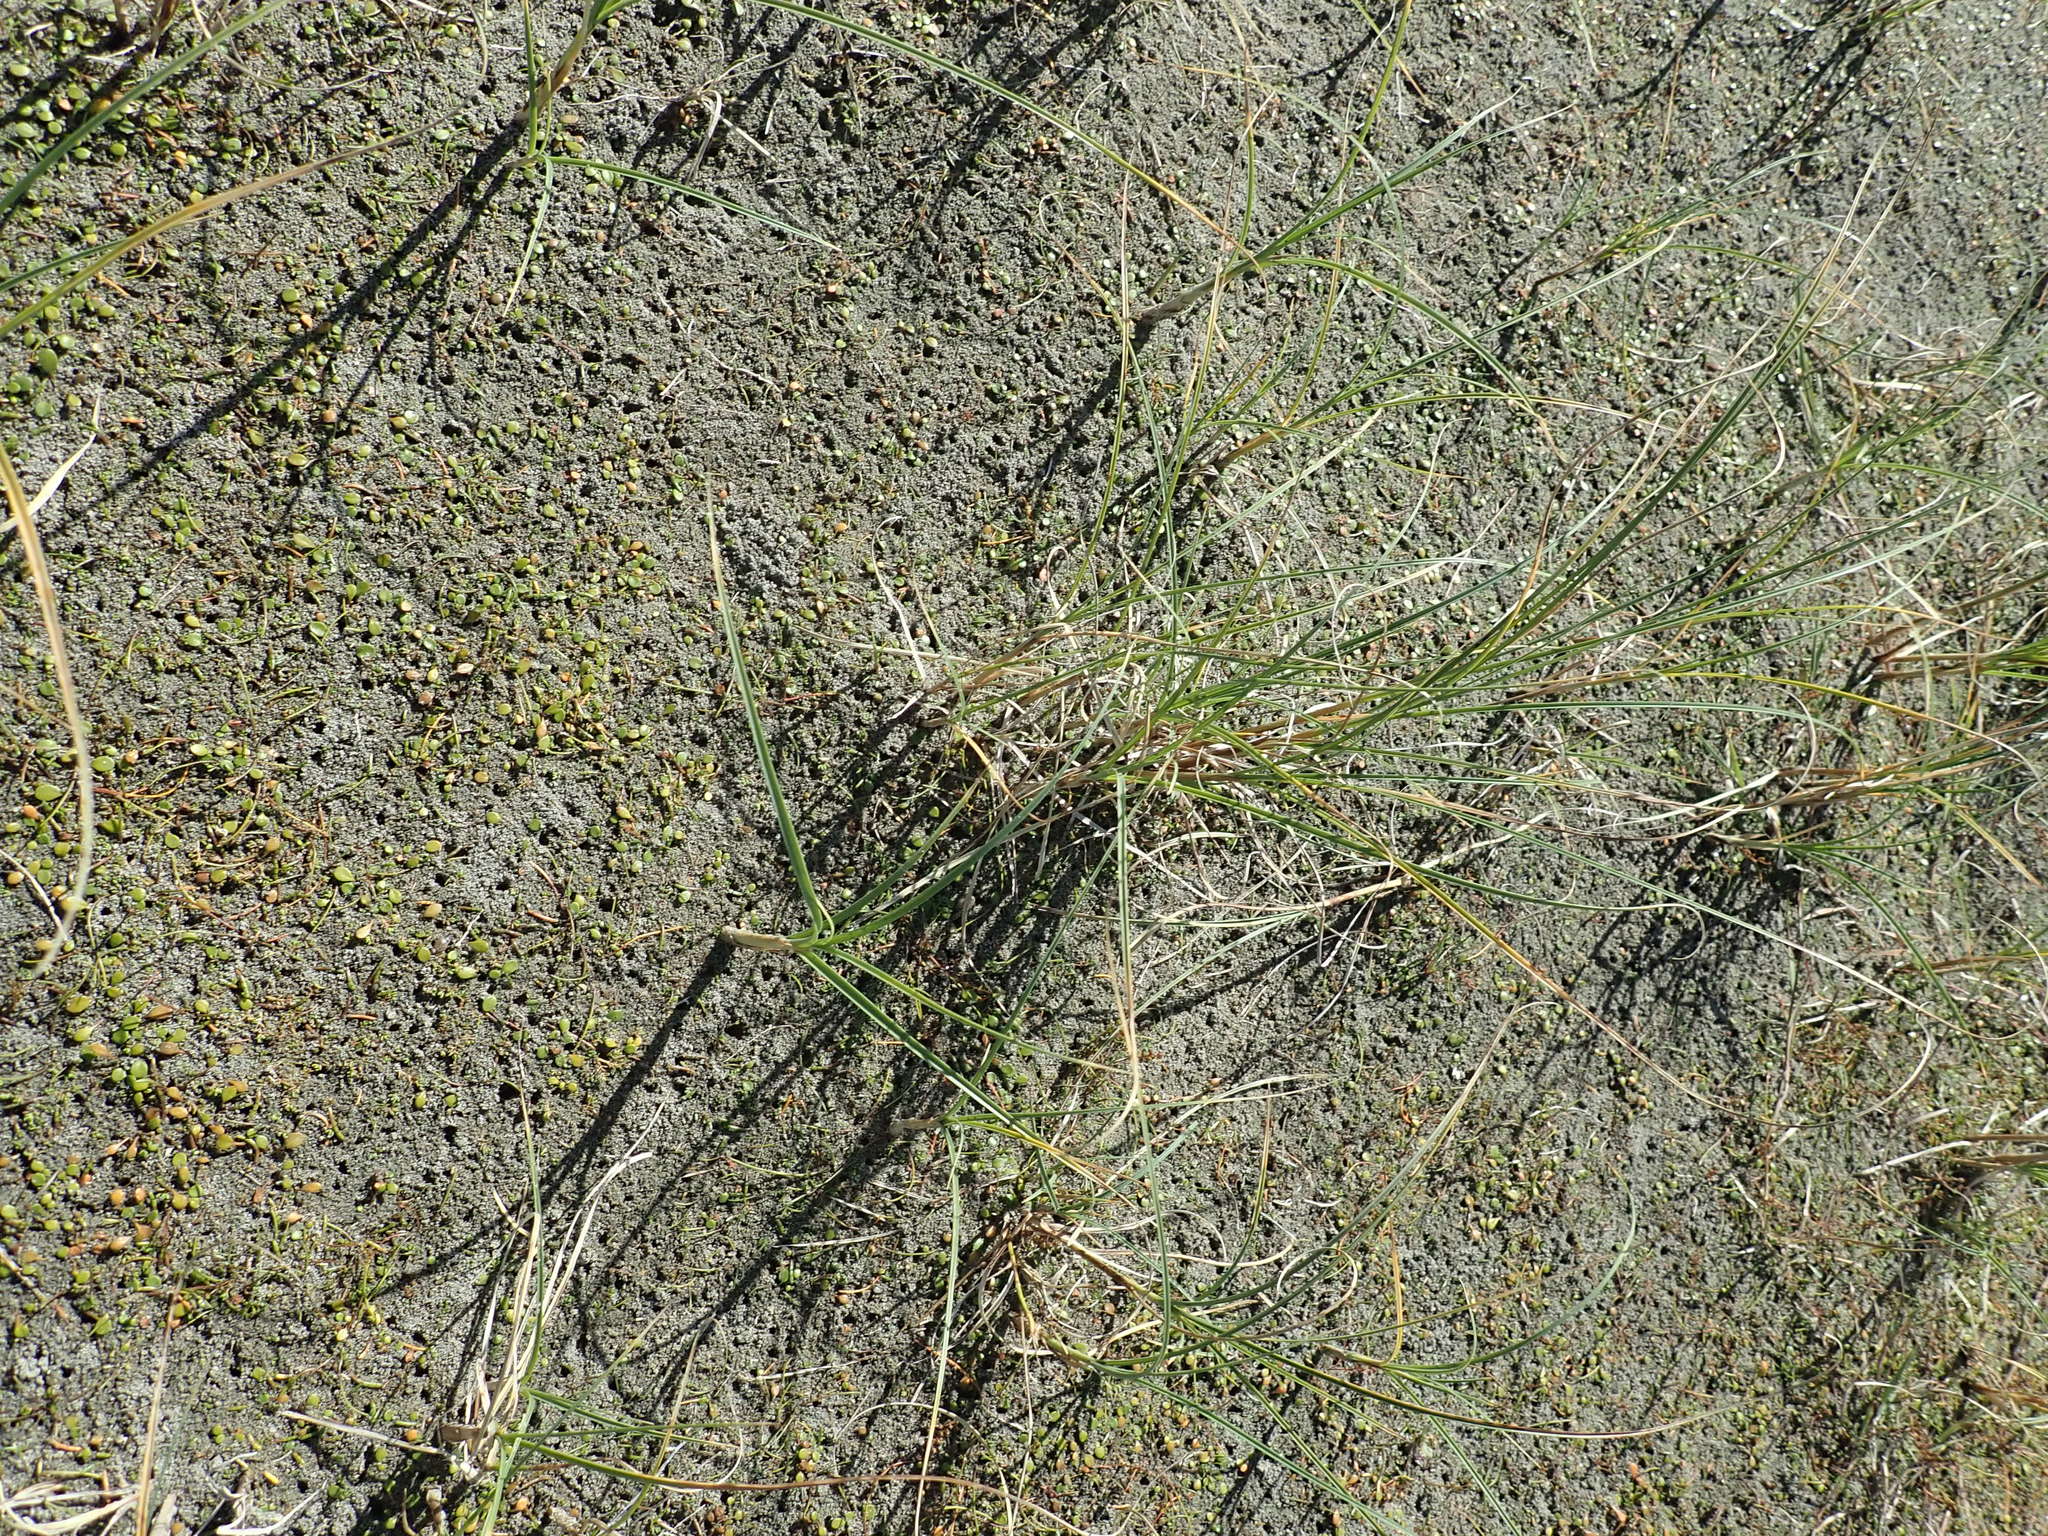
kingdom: Plantae
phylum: Tracheophyta
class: Liliopsida
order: Poales
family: Cyperaceae
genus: Carex
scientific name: Carex pumila
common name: Dwarf sedge
